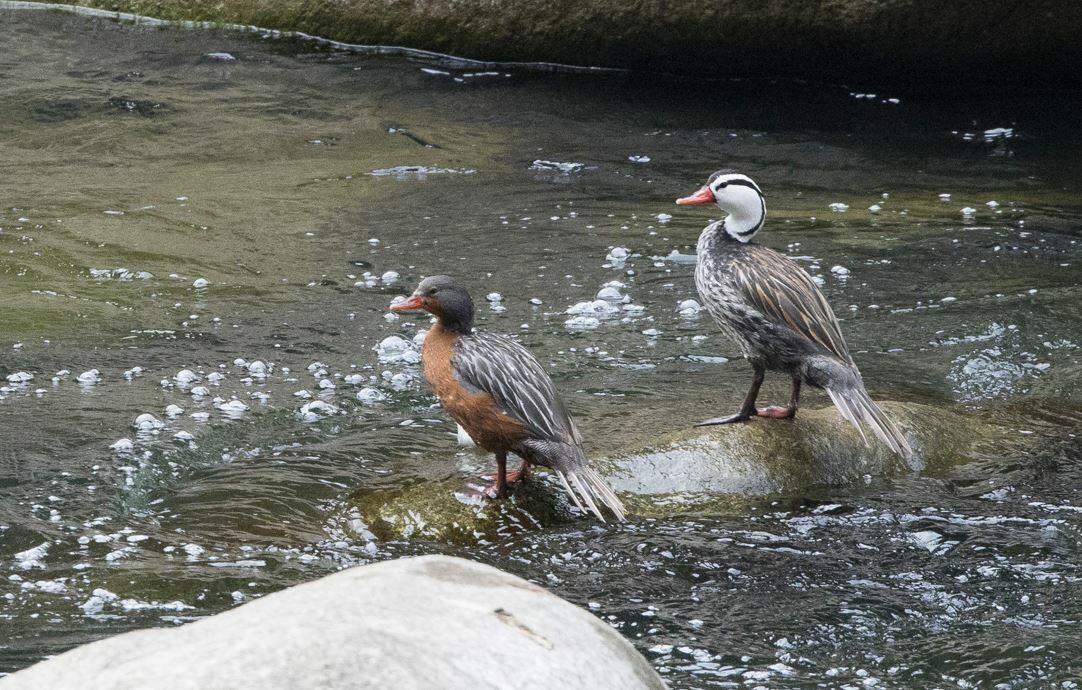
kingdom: Animalia
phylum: Chordata
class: Aves
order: Anseriformes
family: Anatidae
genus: Merganetta
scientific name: Merganetta armata
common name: Torrent duck
